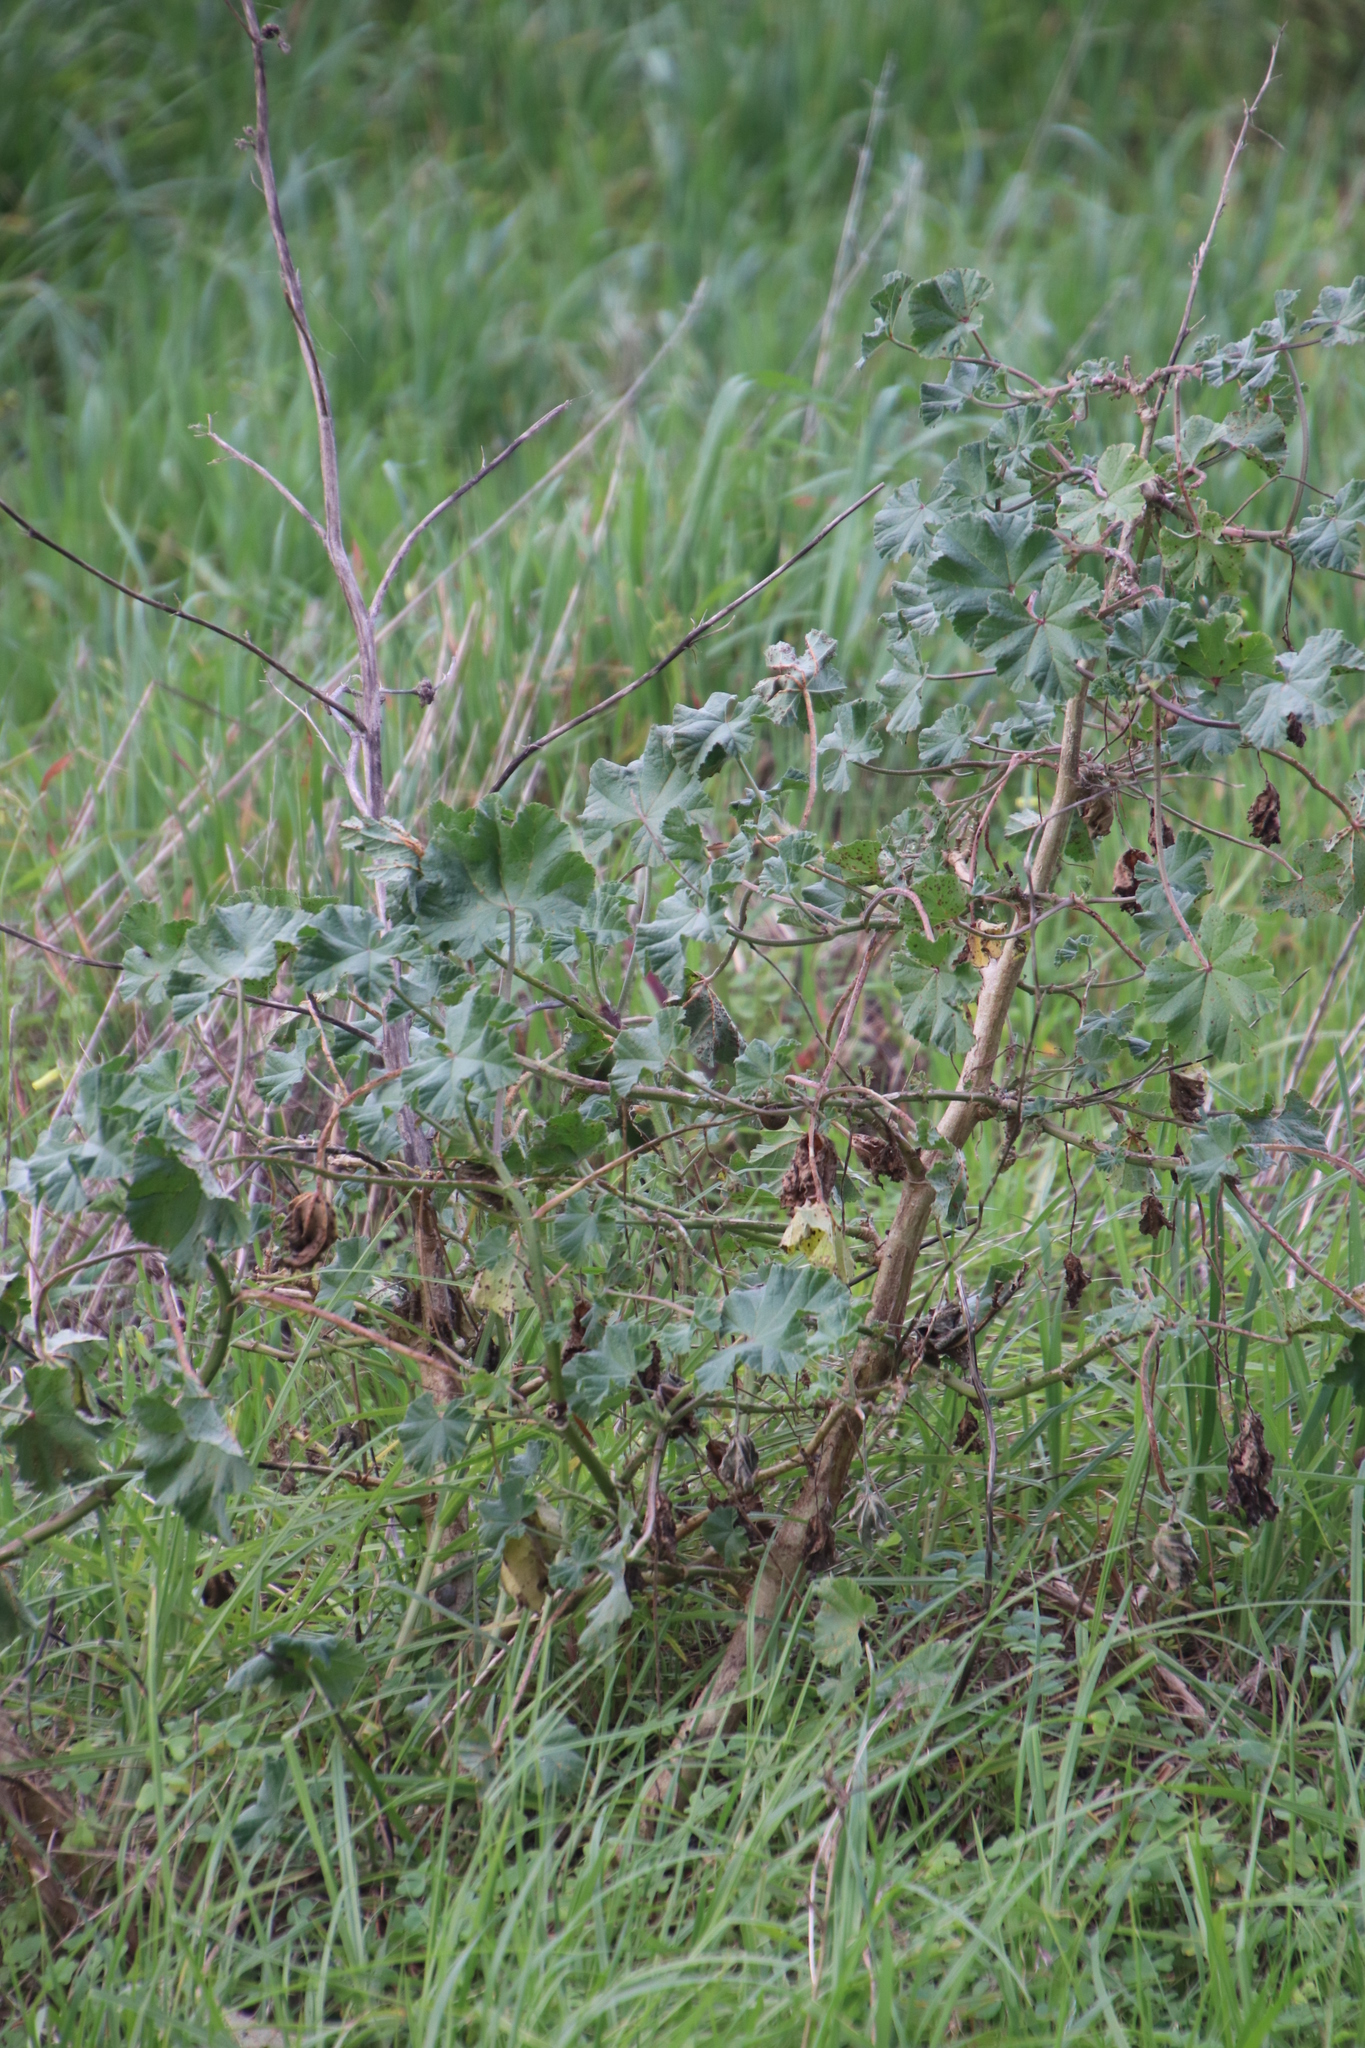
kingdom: Plantae
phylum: Tracheophyta
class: Magnoliopsida
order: Malvales
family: Malvaceae
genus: Malva
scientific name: Malva arborea
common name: Tree mallow
